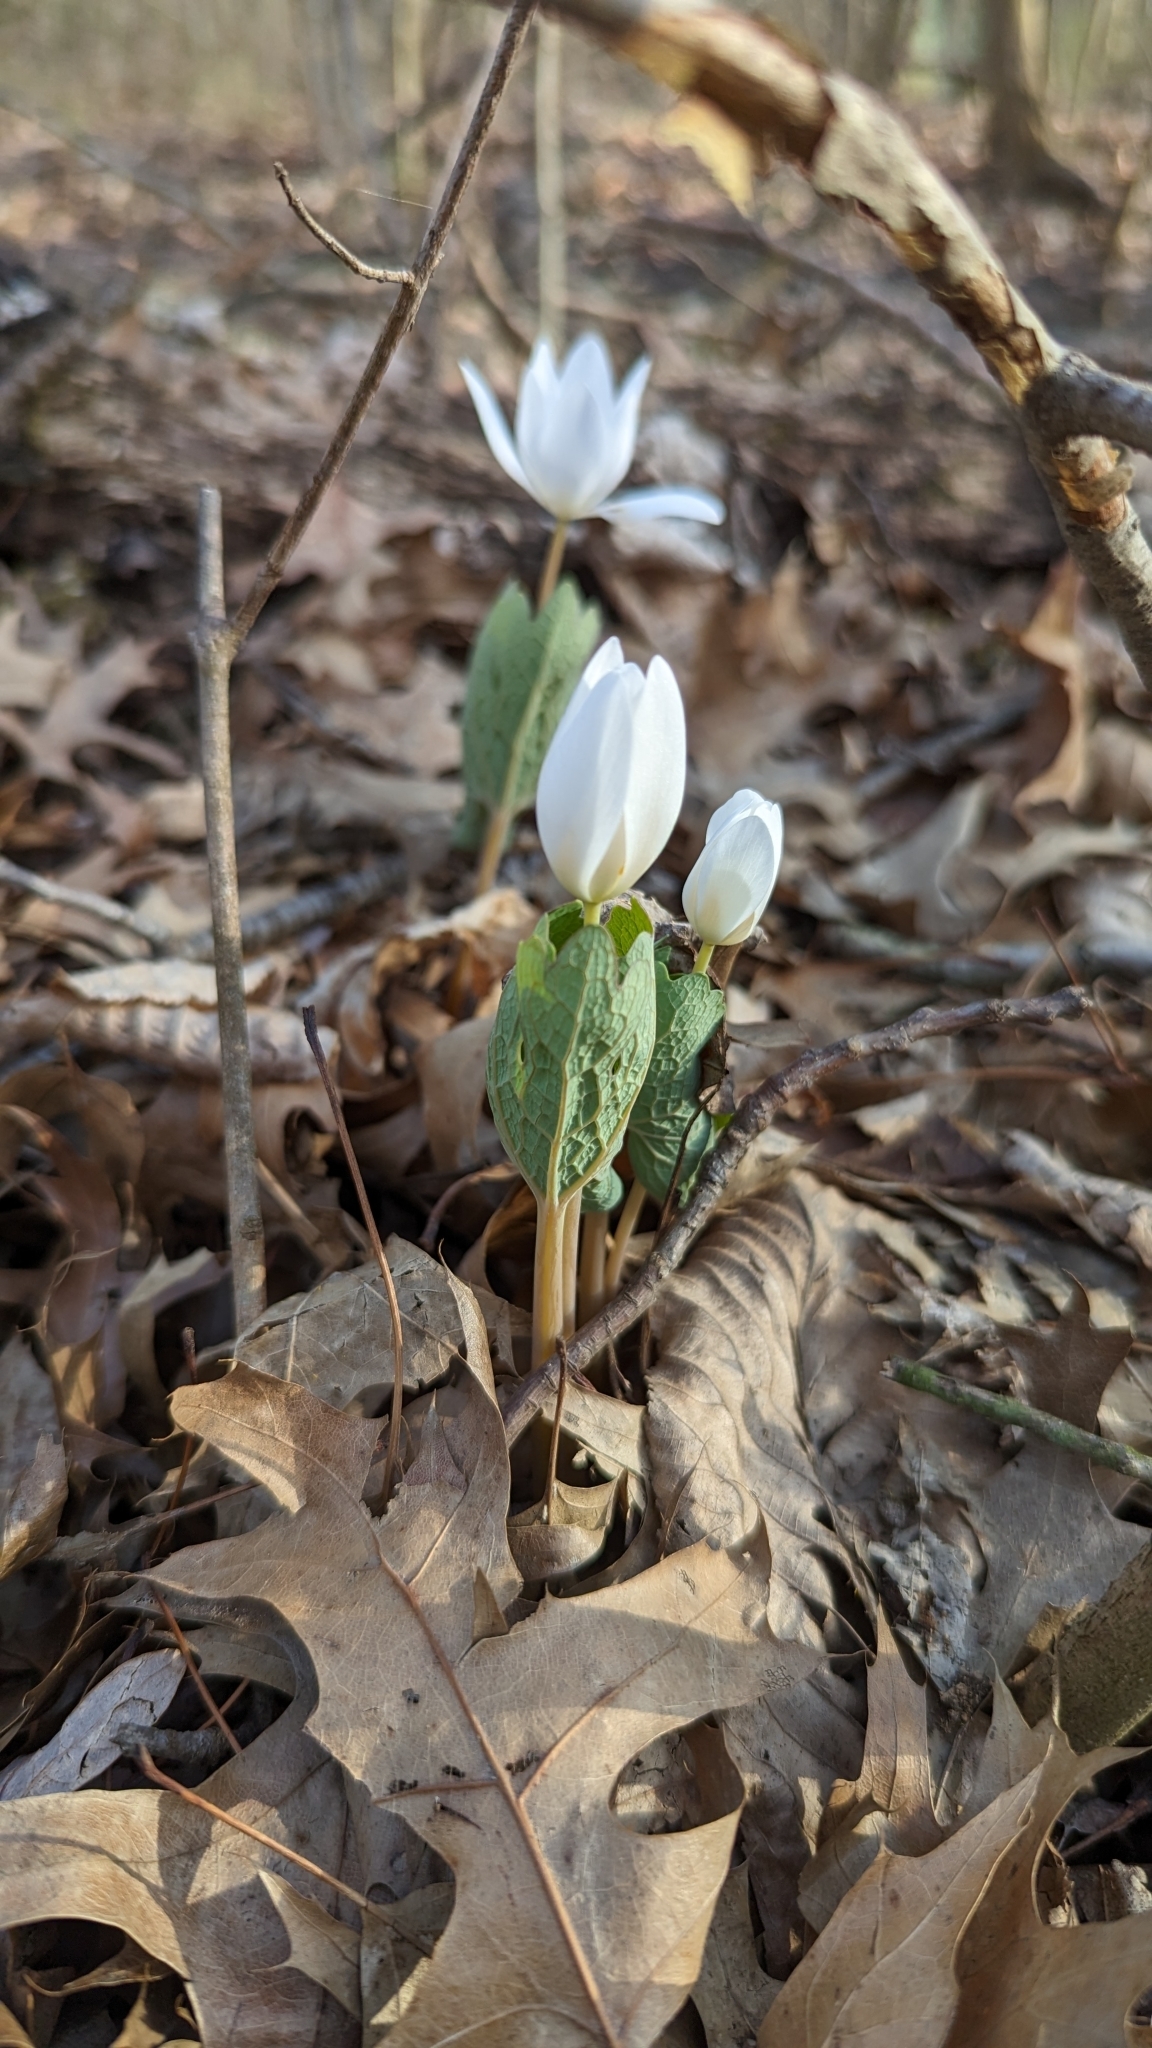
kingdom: Plantae
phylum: Tracheophyta
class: Magnoliopsida
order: Ranunculales
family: Papaveraceae
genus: Sanguinaria
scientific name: Sanguinaria canadensis
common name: Bloodroot
